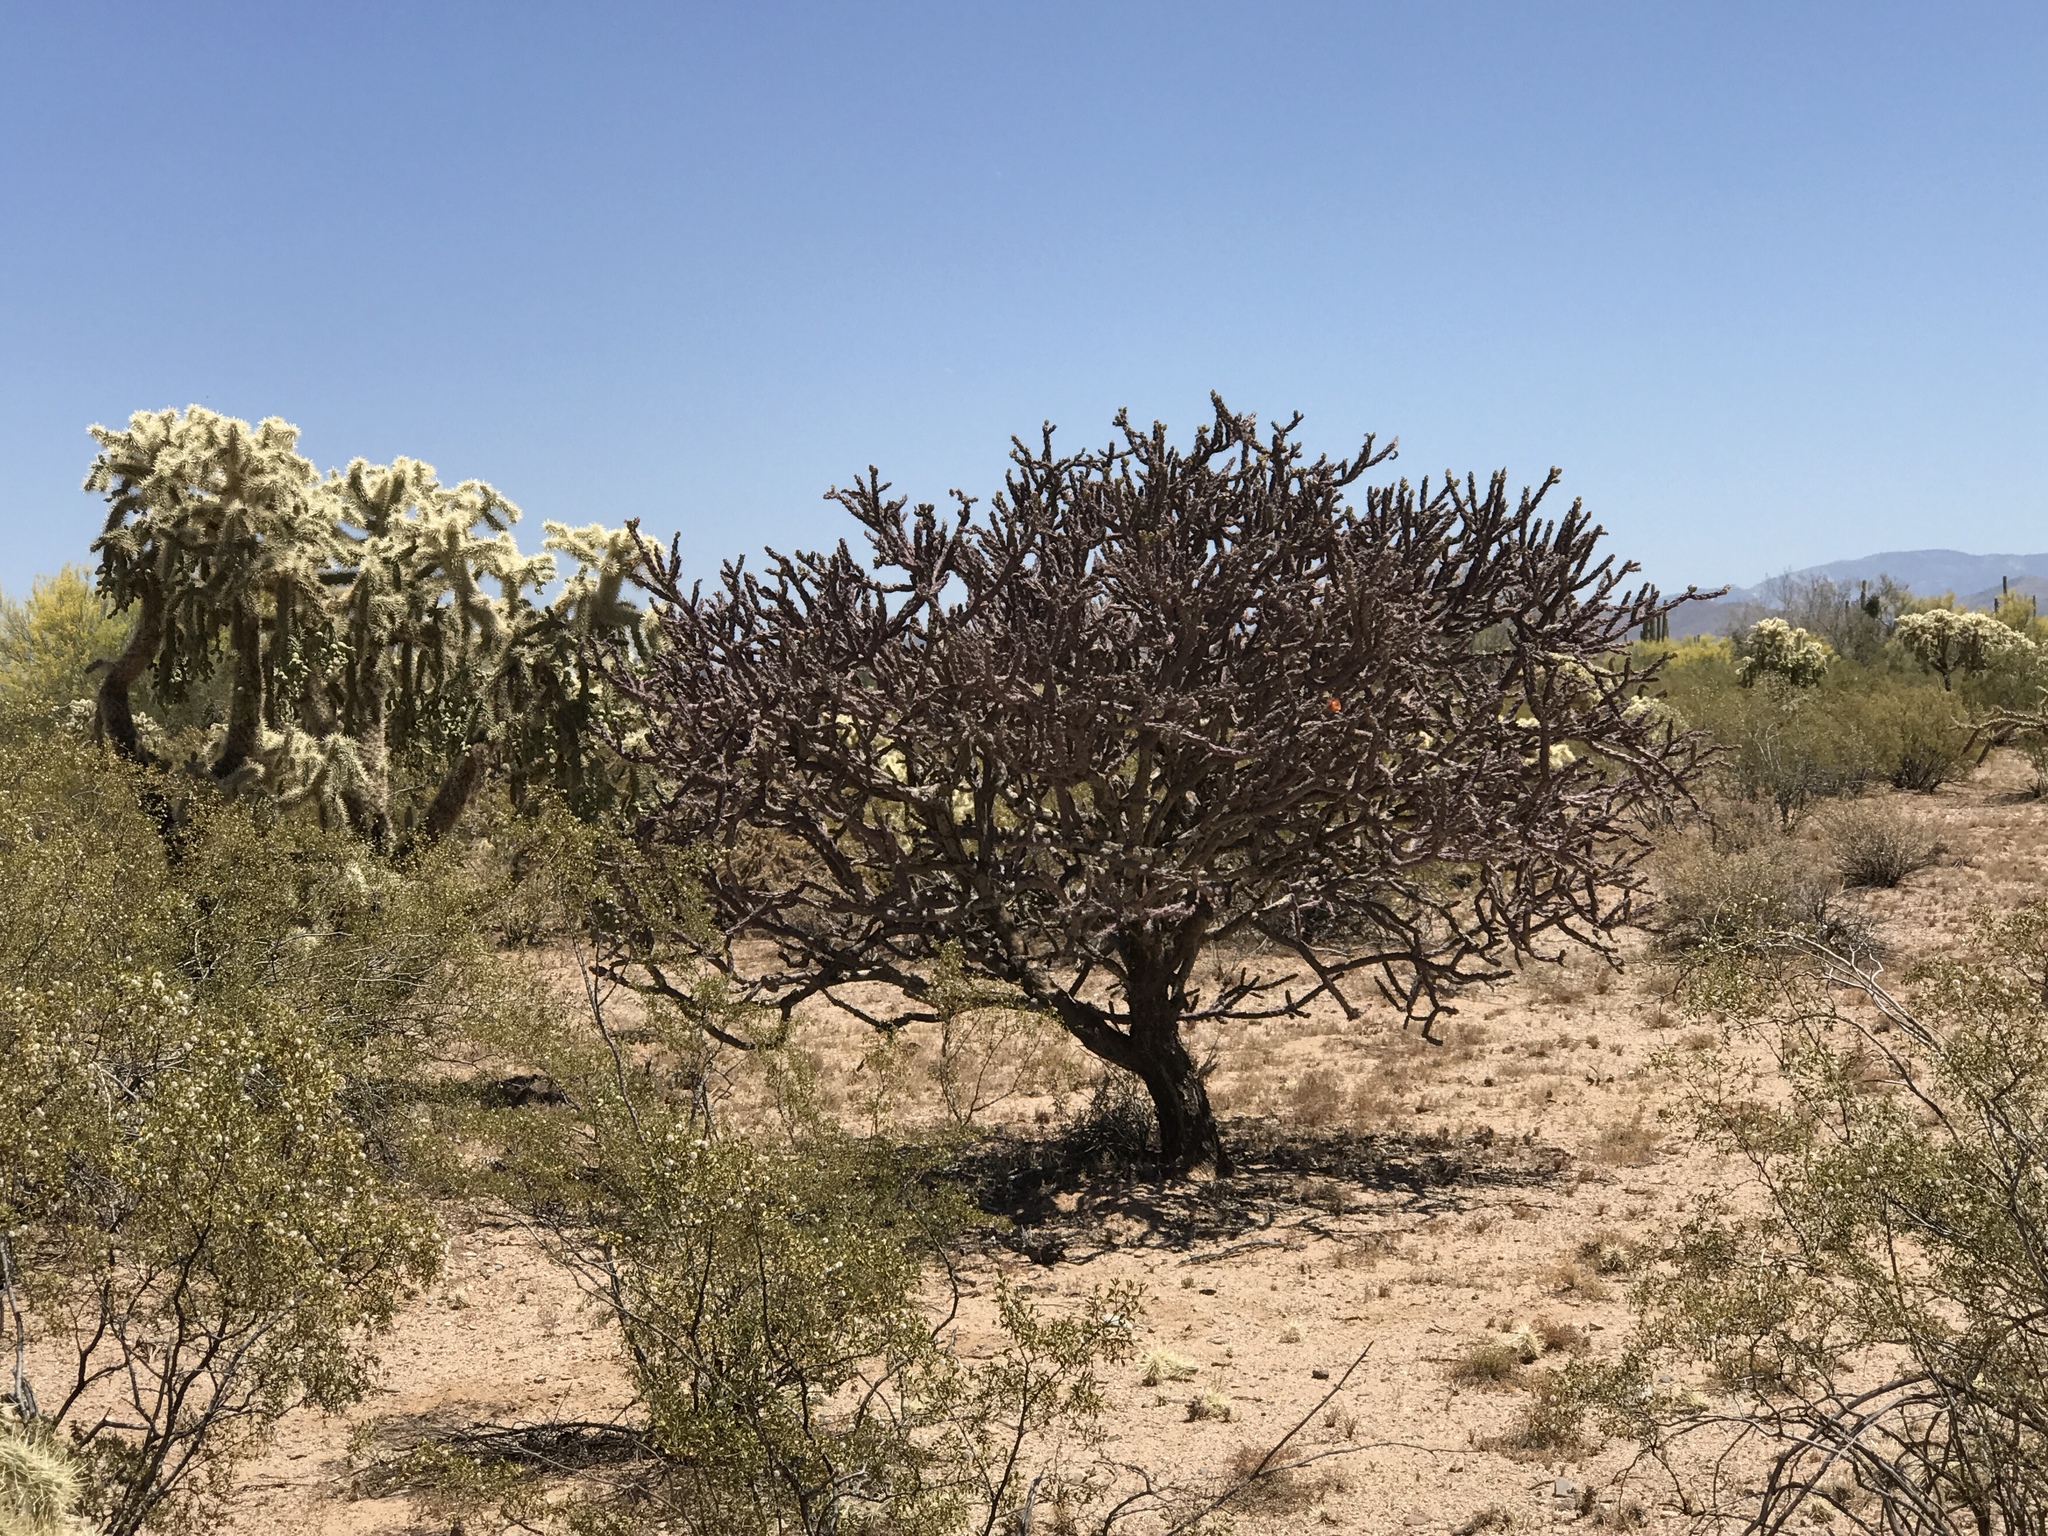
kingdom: Plantae
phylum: Tracheophyta
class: Magnoliopsida
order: Caryophyllales
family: Cactaceae
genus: Cylindropuntia
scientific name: Cylindropuntia thurberi
